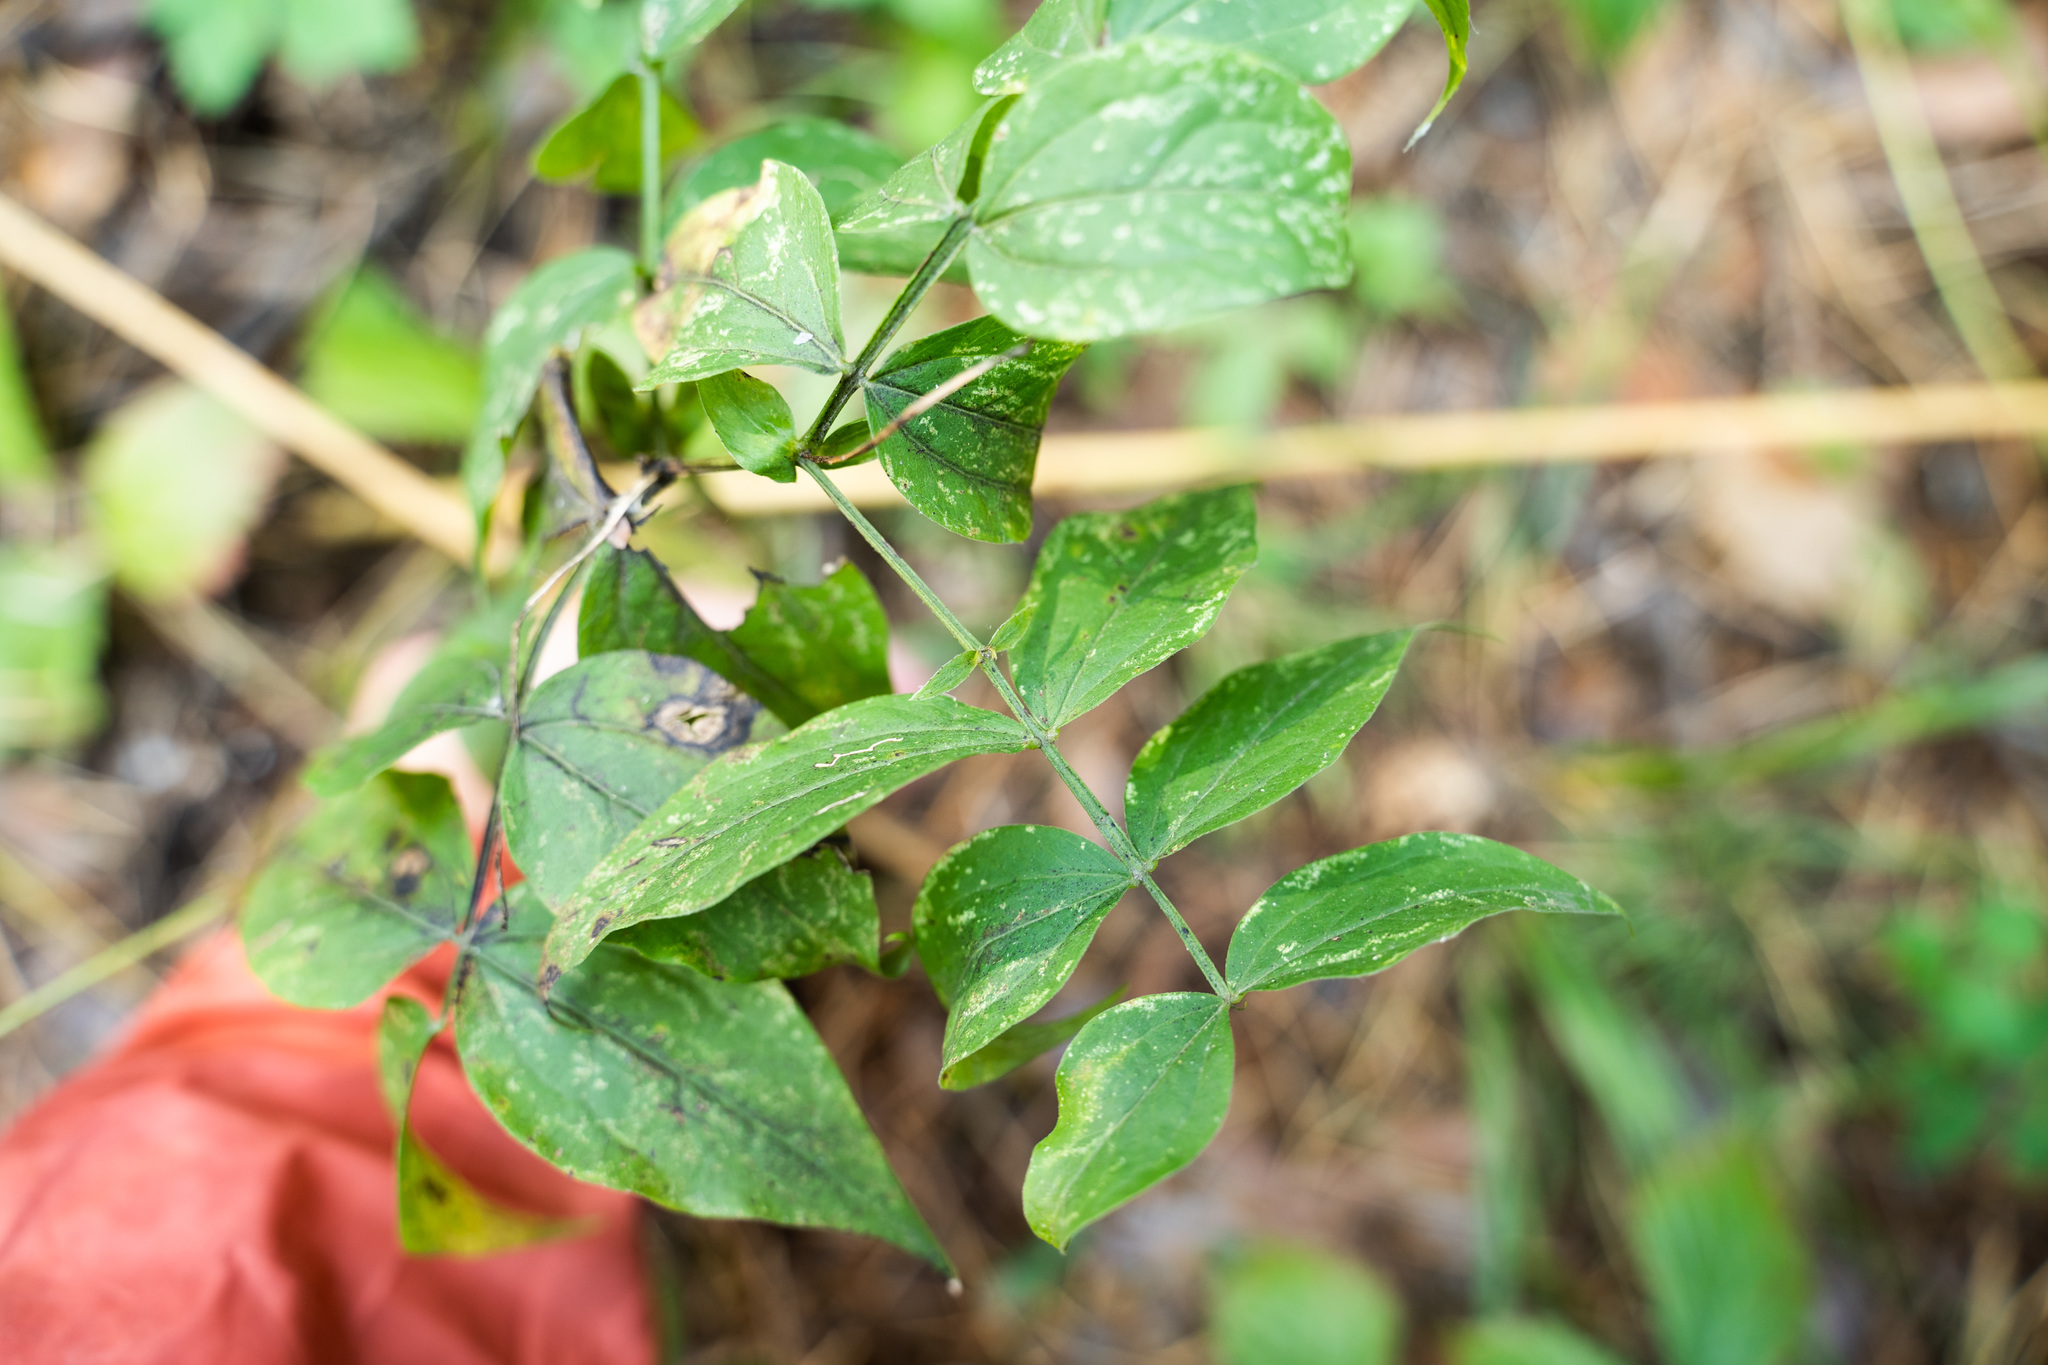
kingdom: Plantae
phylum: Tracheophyta
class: Magnoliopsida
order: Fabales
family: Fabaceae
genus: Lathyrus
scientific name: Lathyrus vernus
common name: Spring pea
